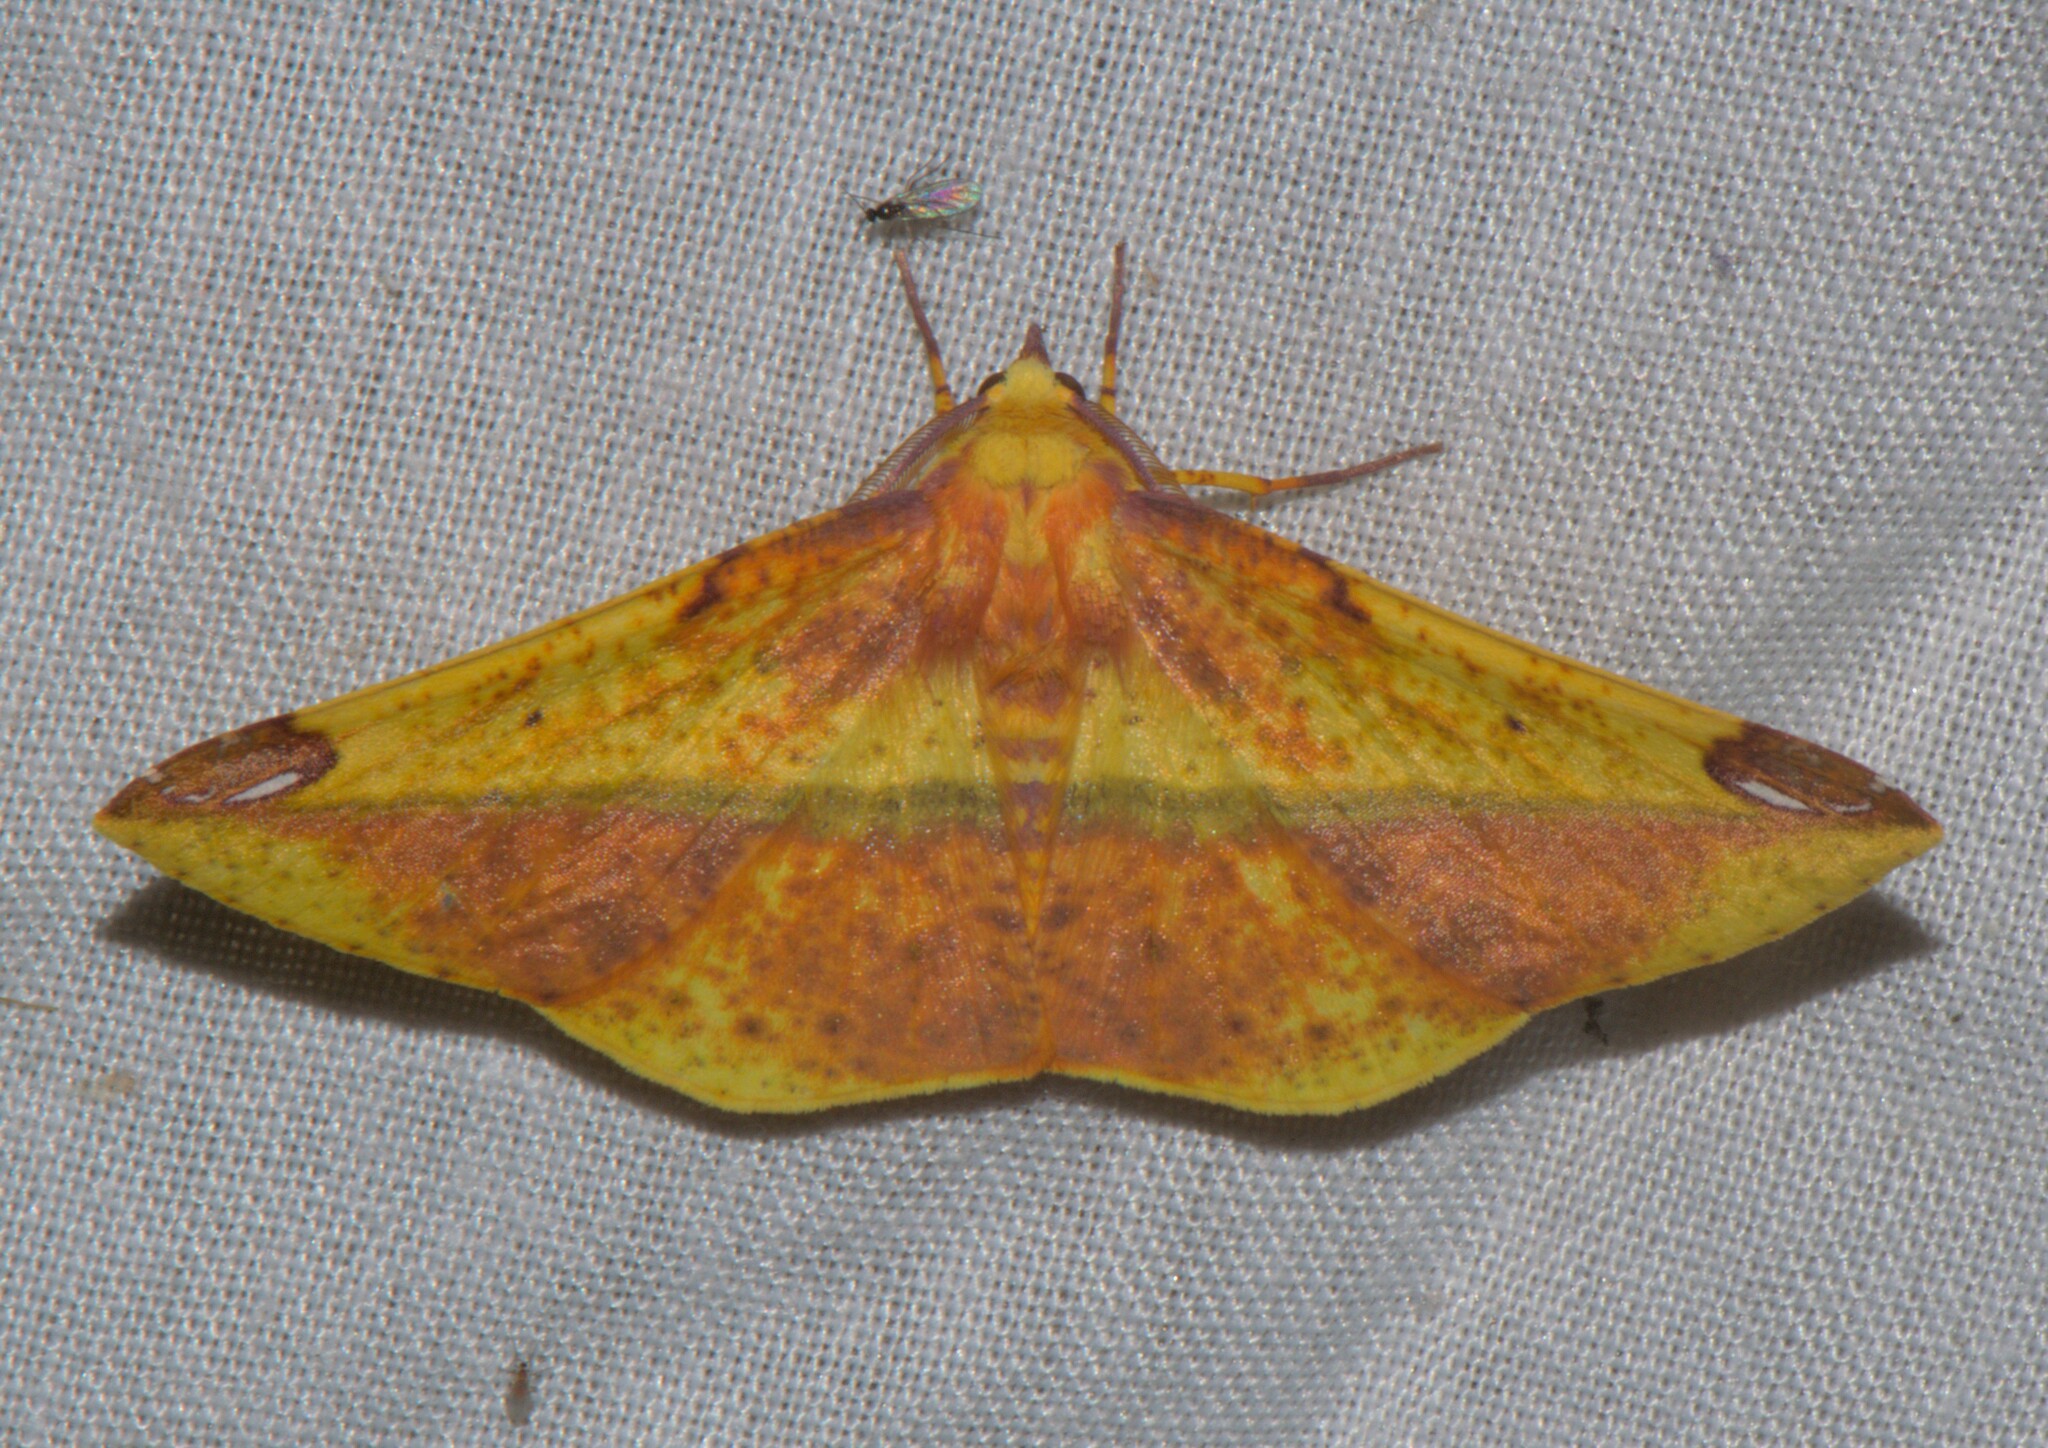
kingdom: Animalia
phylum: Arthropoda
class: Insecta
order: Lepidoptera
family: Geometridae
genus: Mimomiza
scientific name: Mimomiza cruentaria
